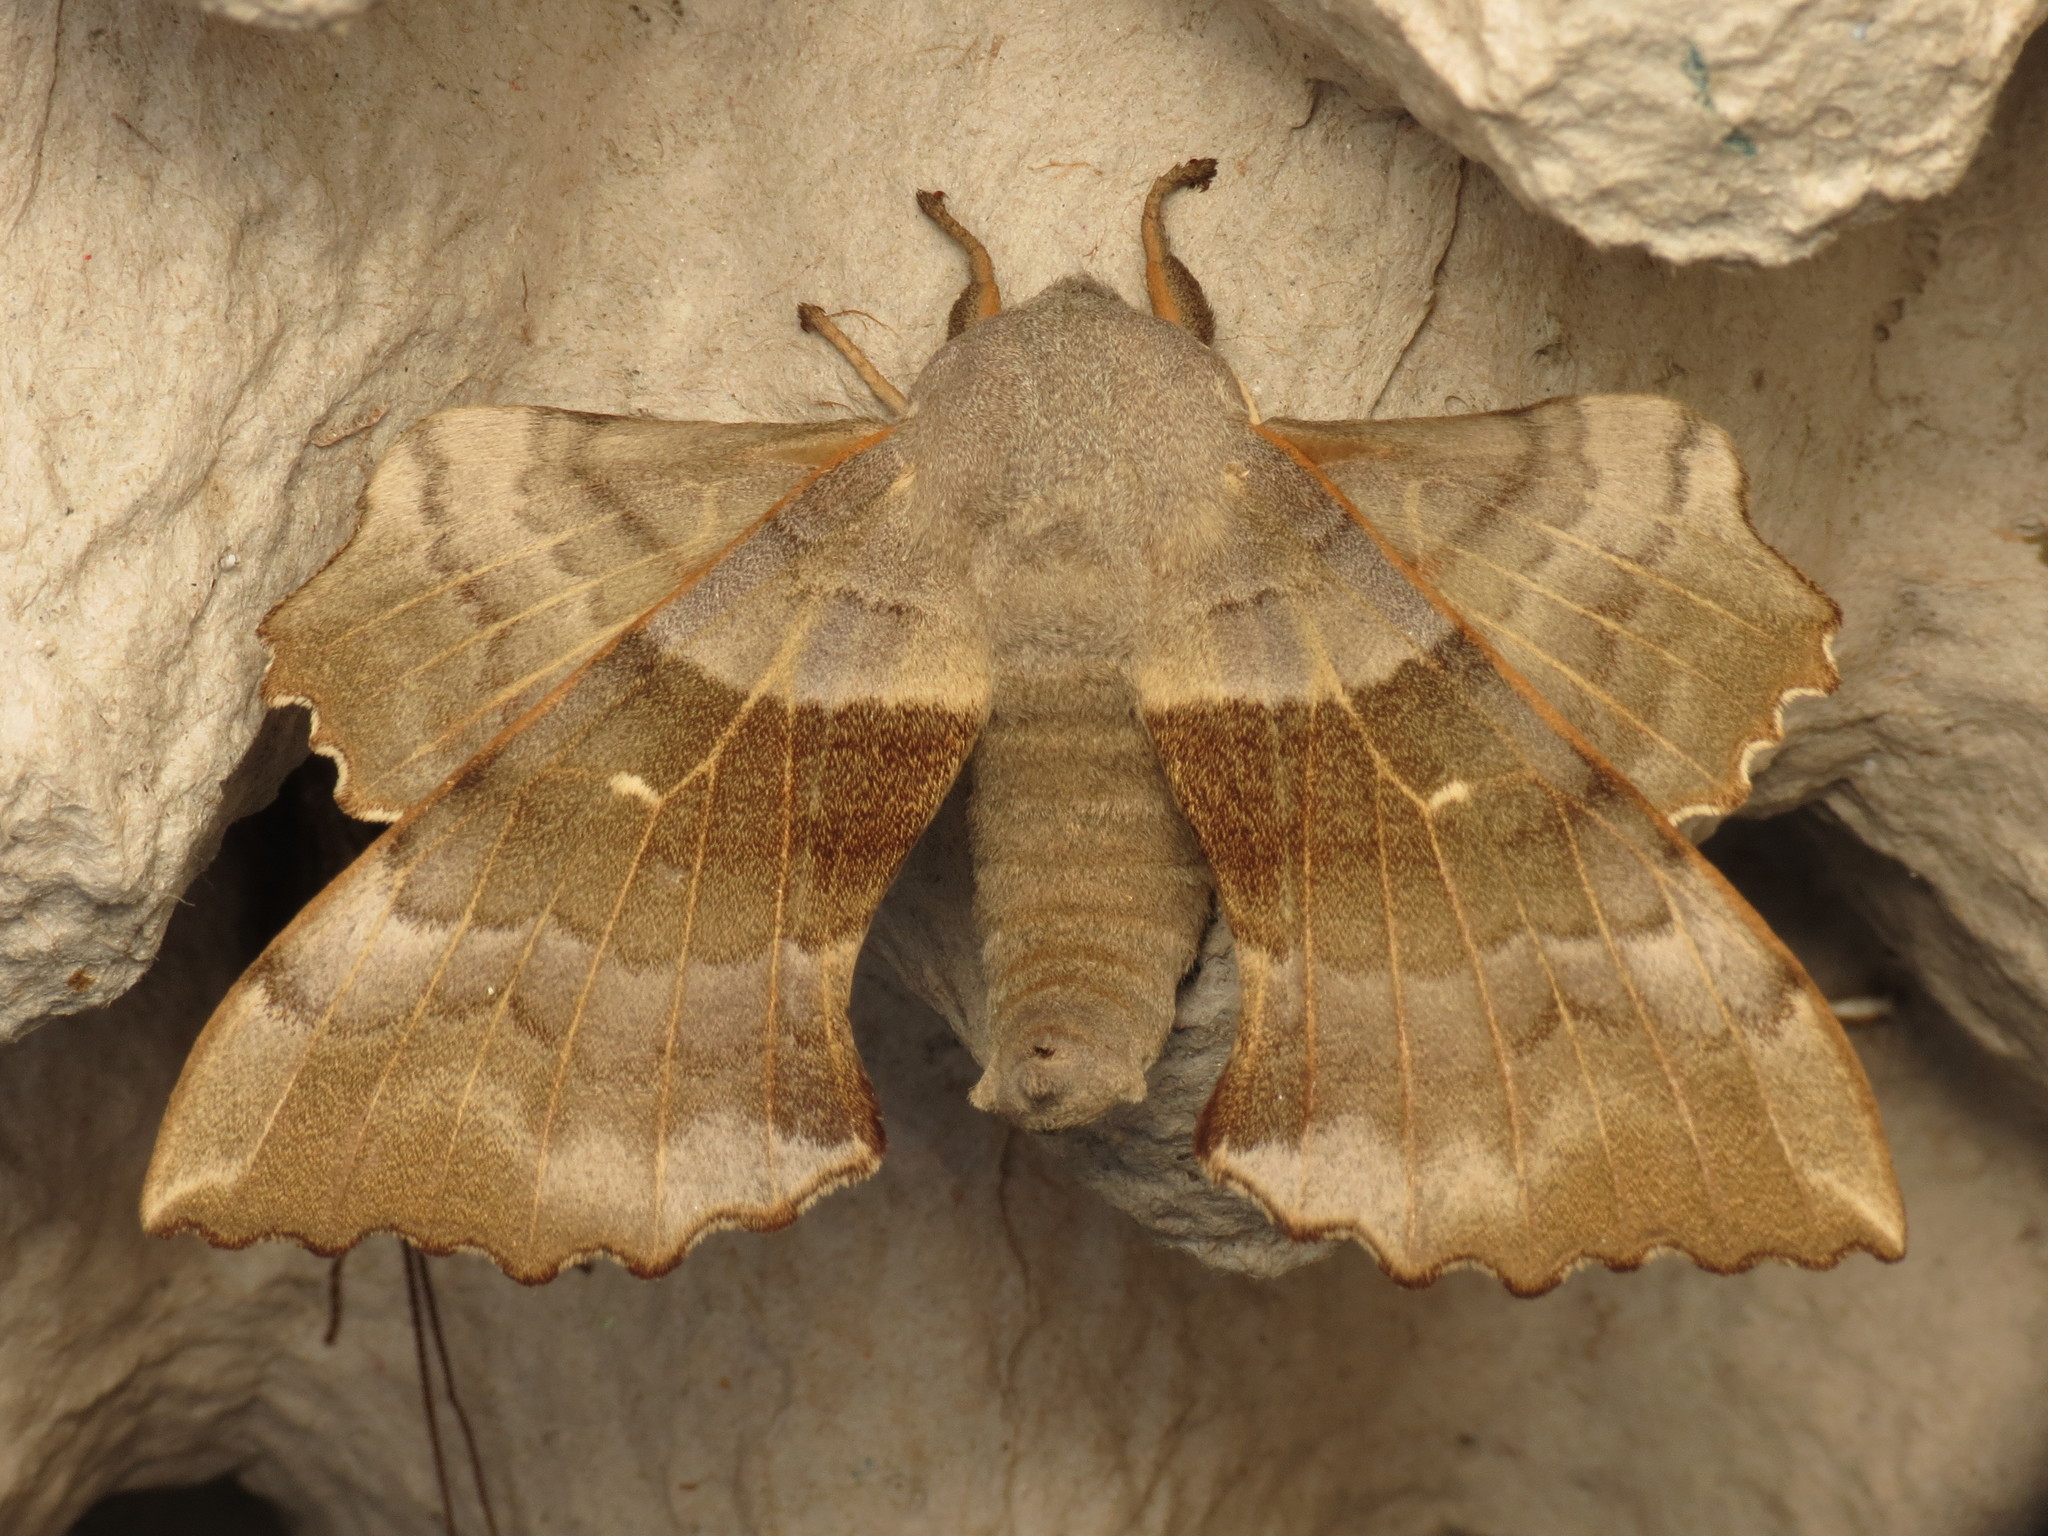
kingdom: Animalia
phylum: Arthropoda
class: Insecta
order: Lepidoptera
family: Sphingidae
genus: Laothoe
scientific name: Laothoe populi
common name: Poplar hawk-moth
